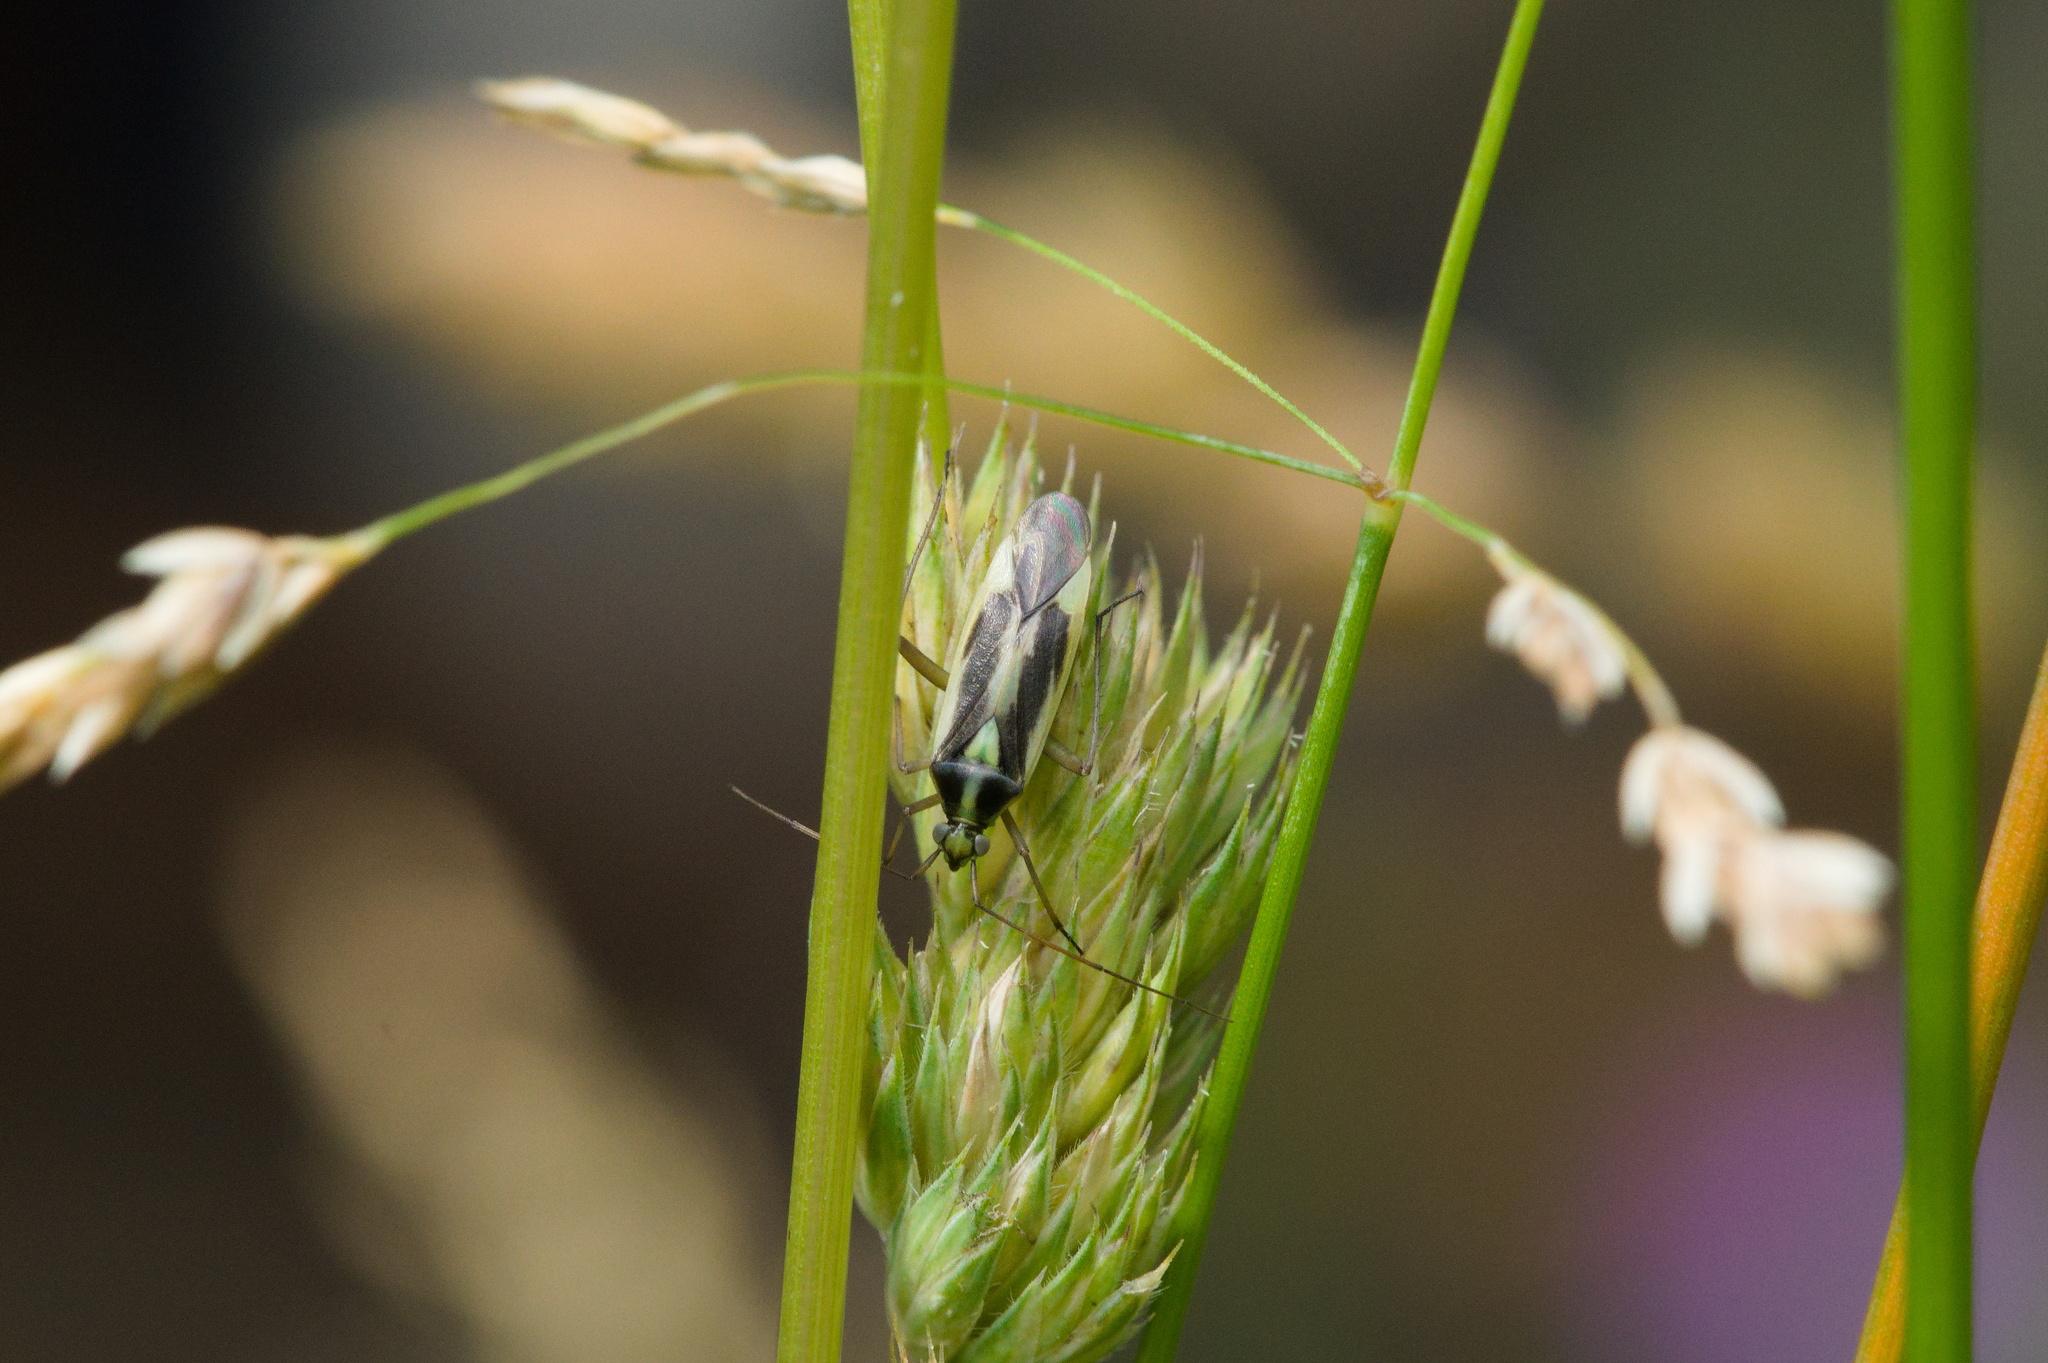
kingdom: Animalia
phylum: Arthropoda
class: Insecta
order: Hemiptera
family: Miridae
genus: Stenotus
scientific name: Stenotus binotatus
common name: Plant bug
